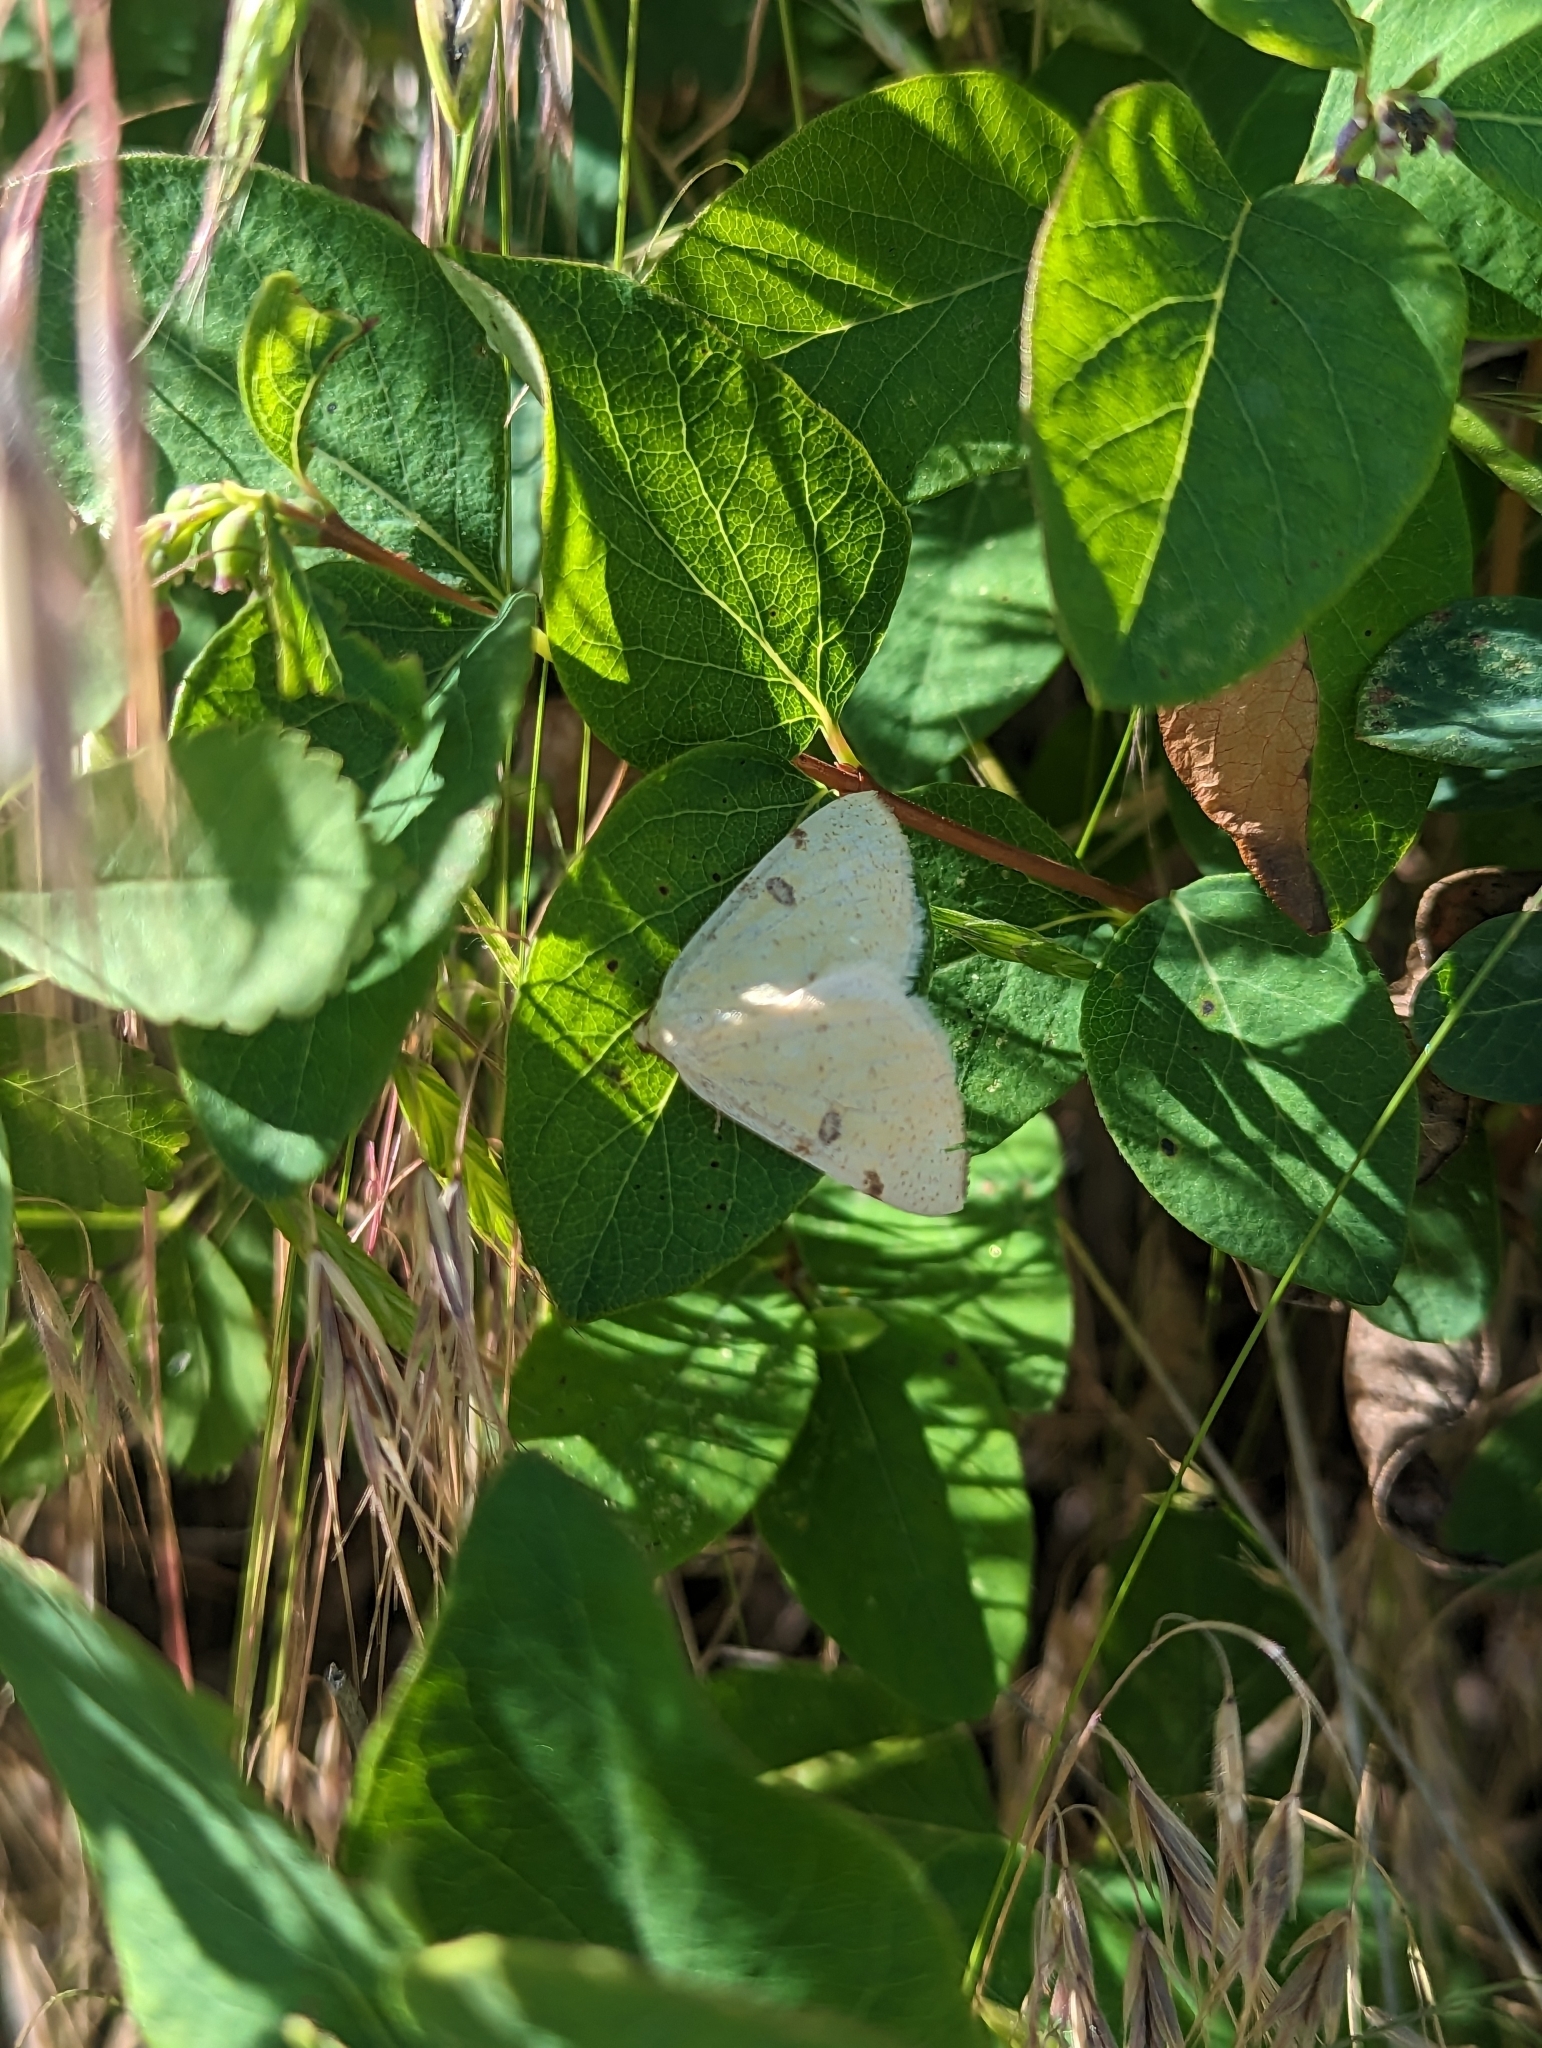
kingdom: Animalia
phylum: Arthropoda
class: Insecta
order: Lepidoptera
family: Geometridae
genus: Hesperumia
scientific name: Hesperumia sulphuraria
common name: Sulphur moth
